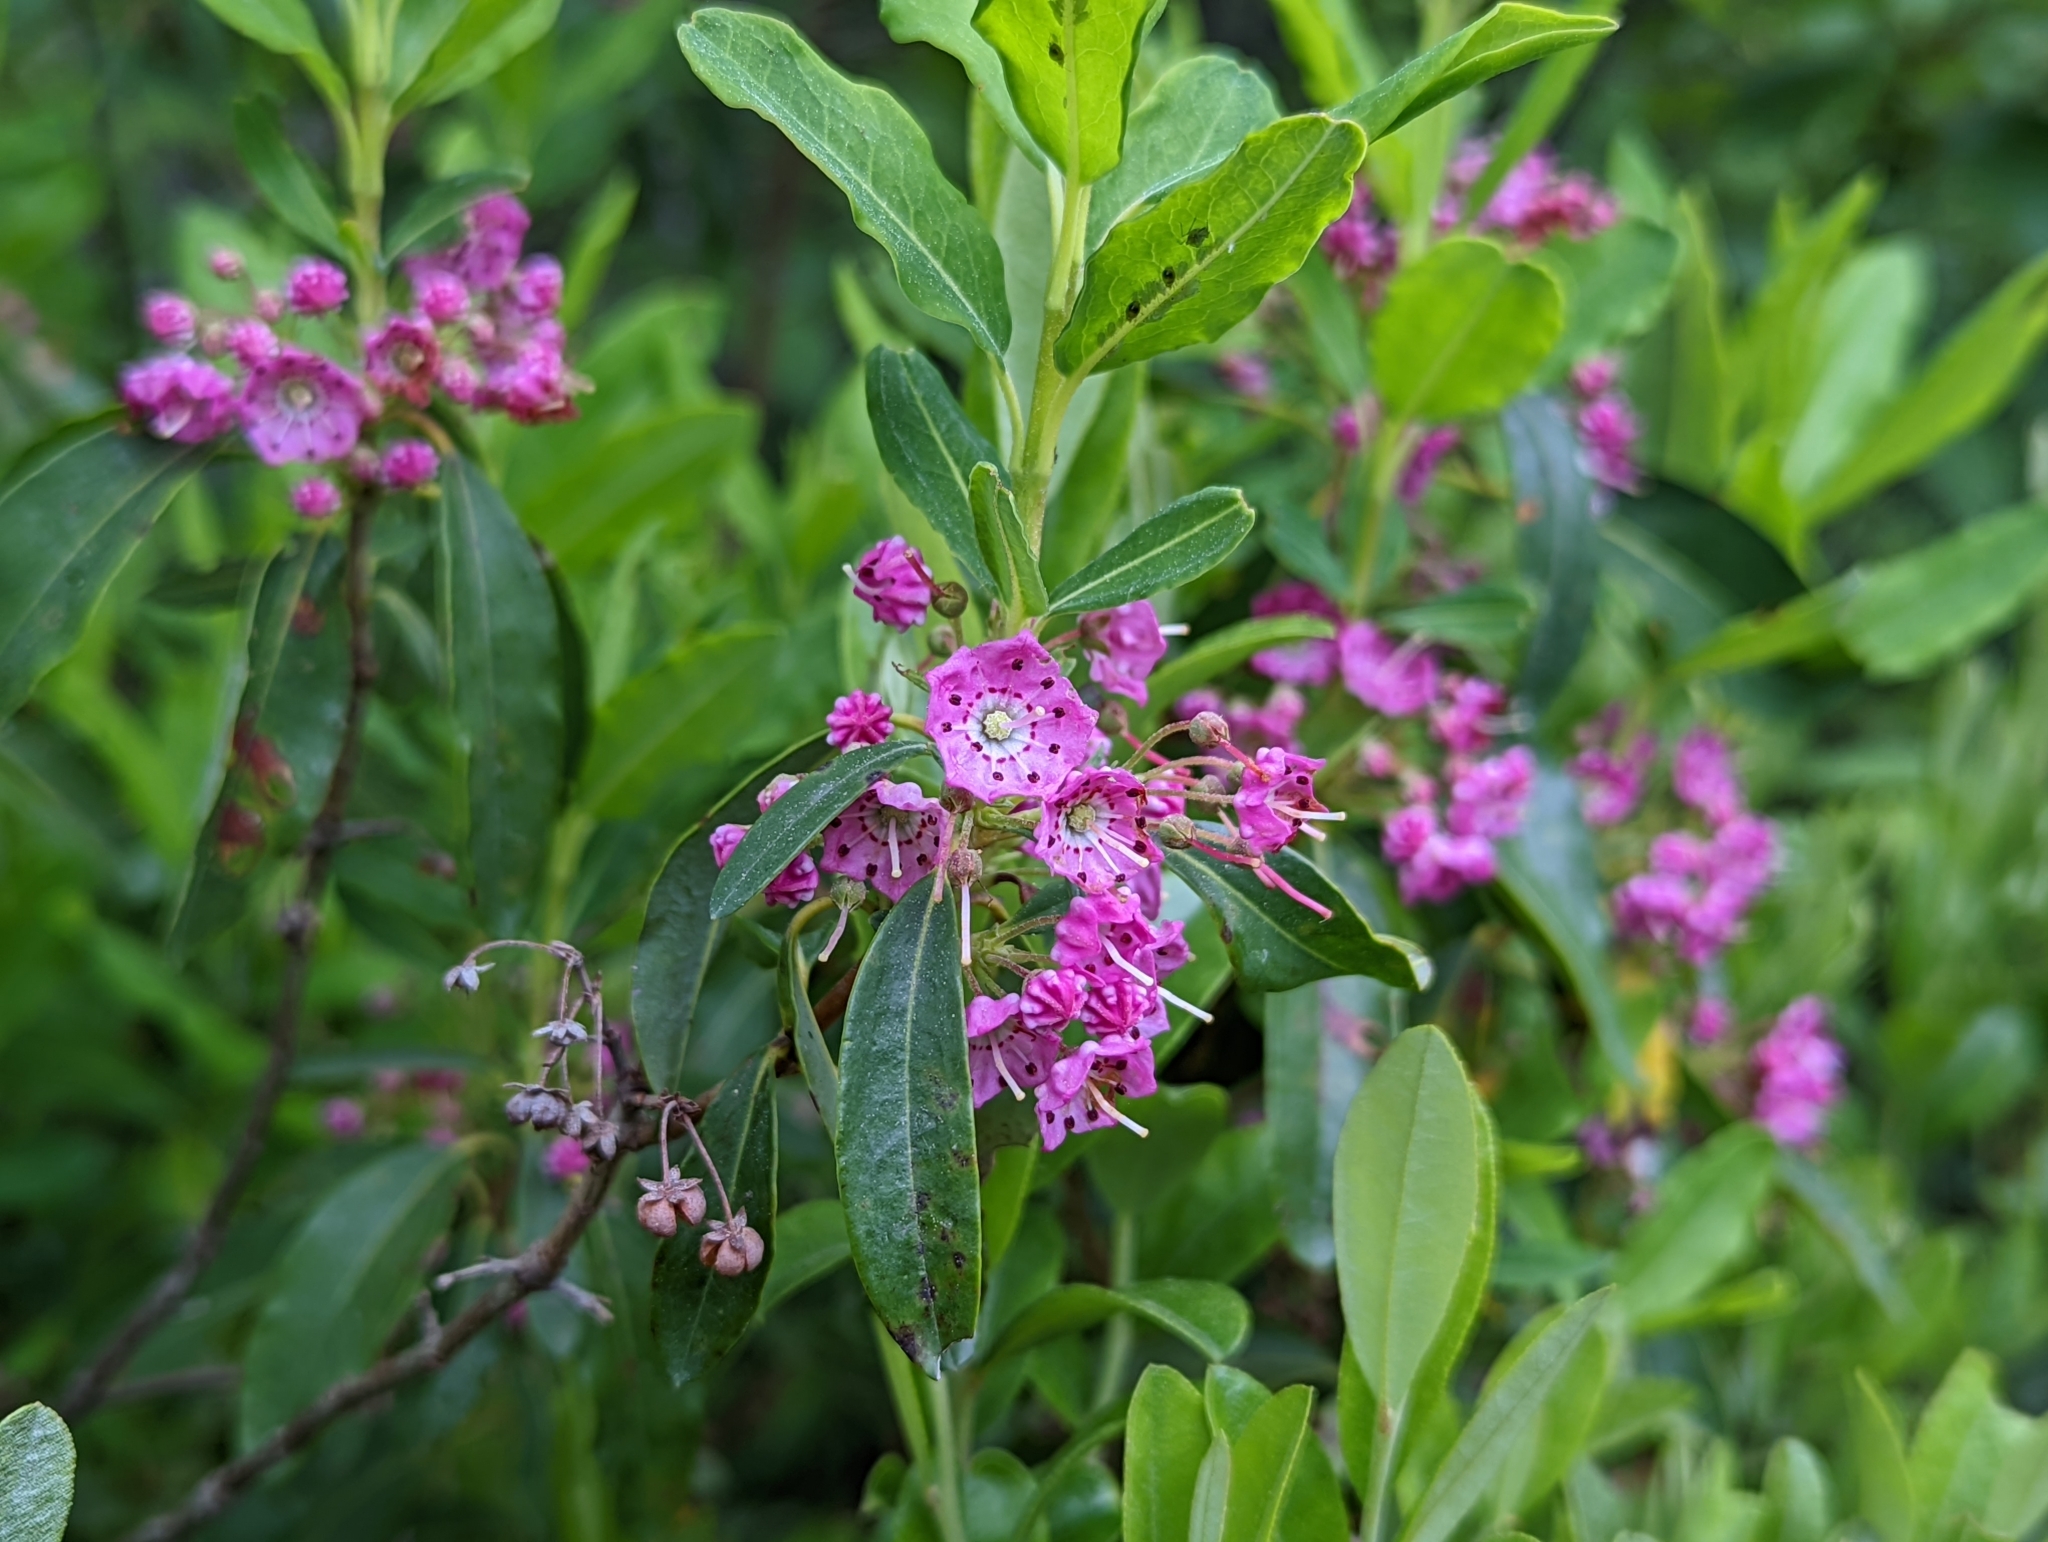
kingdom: Plantae
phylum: Tracheophyta
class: Magnoliopsida
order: Ericales
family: Ericaceae
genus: Kalmia
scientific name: Kalmia angustifolia
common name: Sheep-laurel
